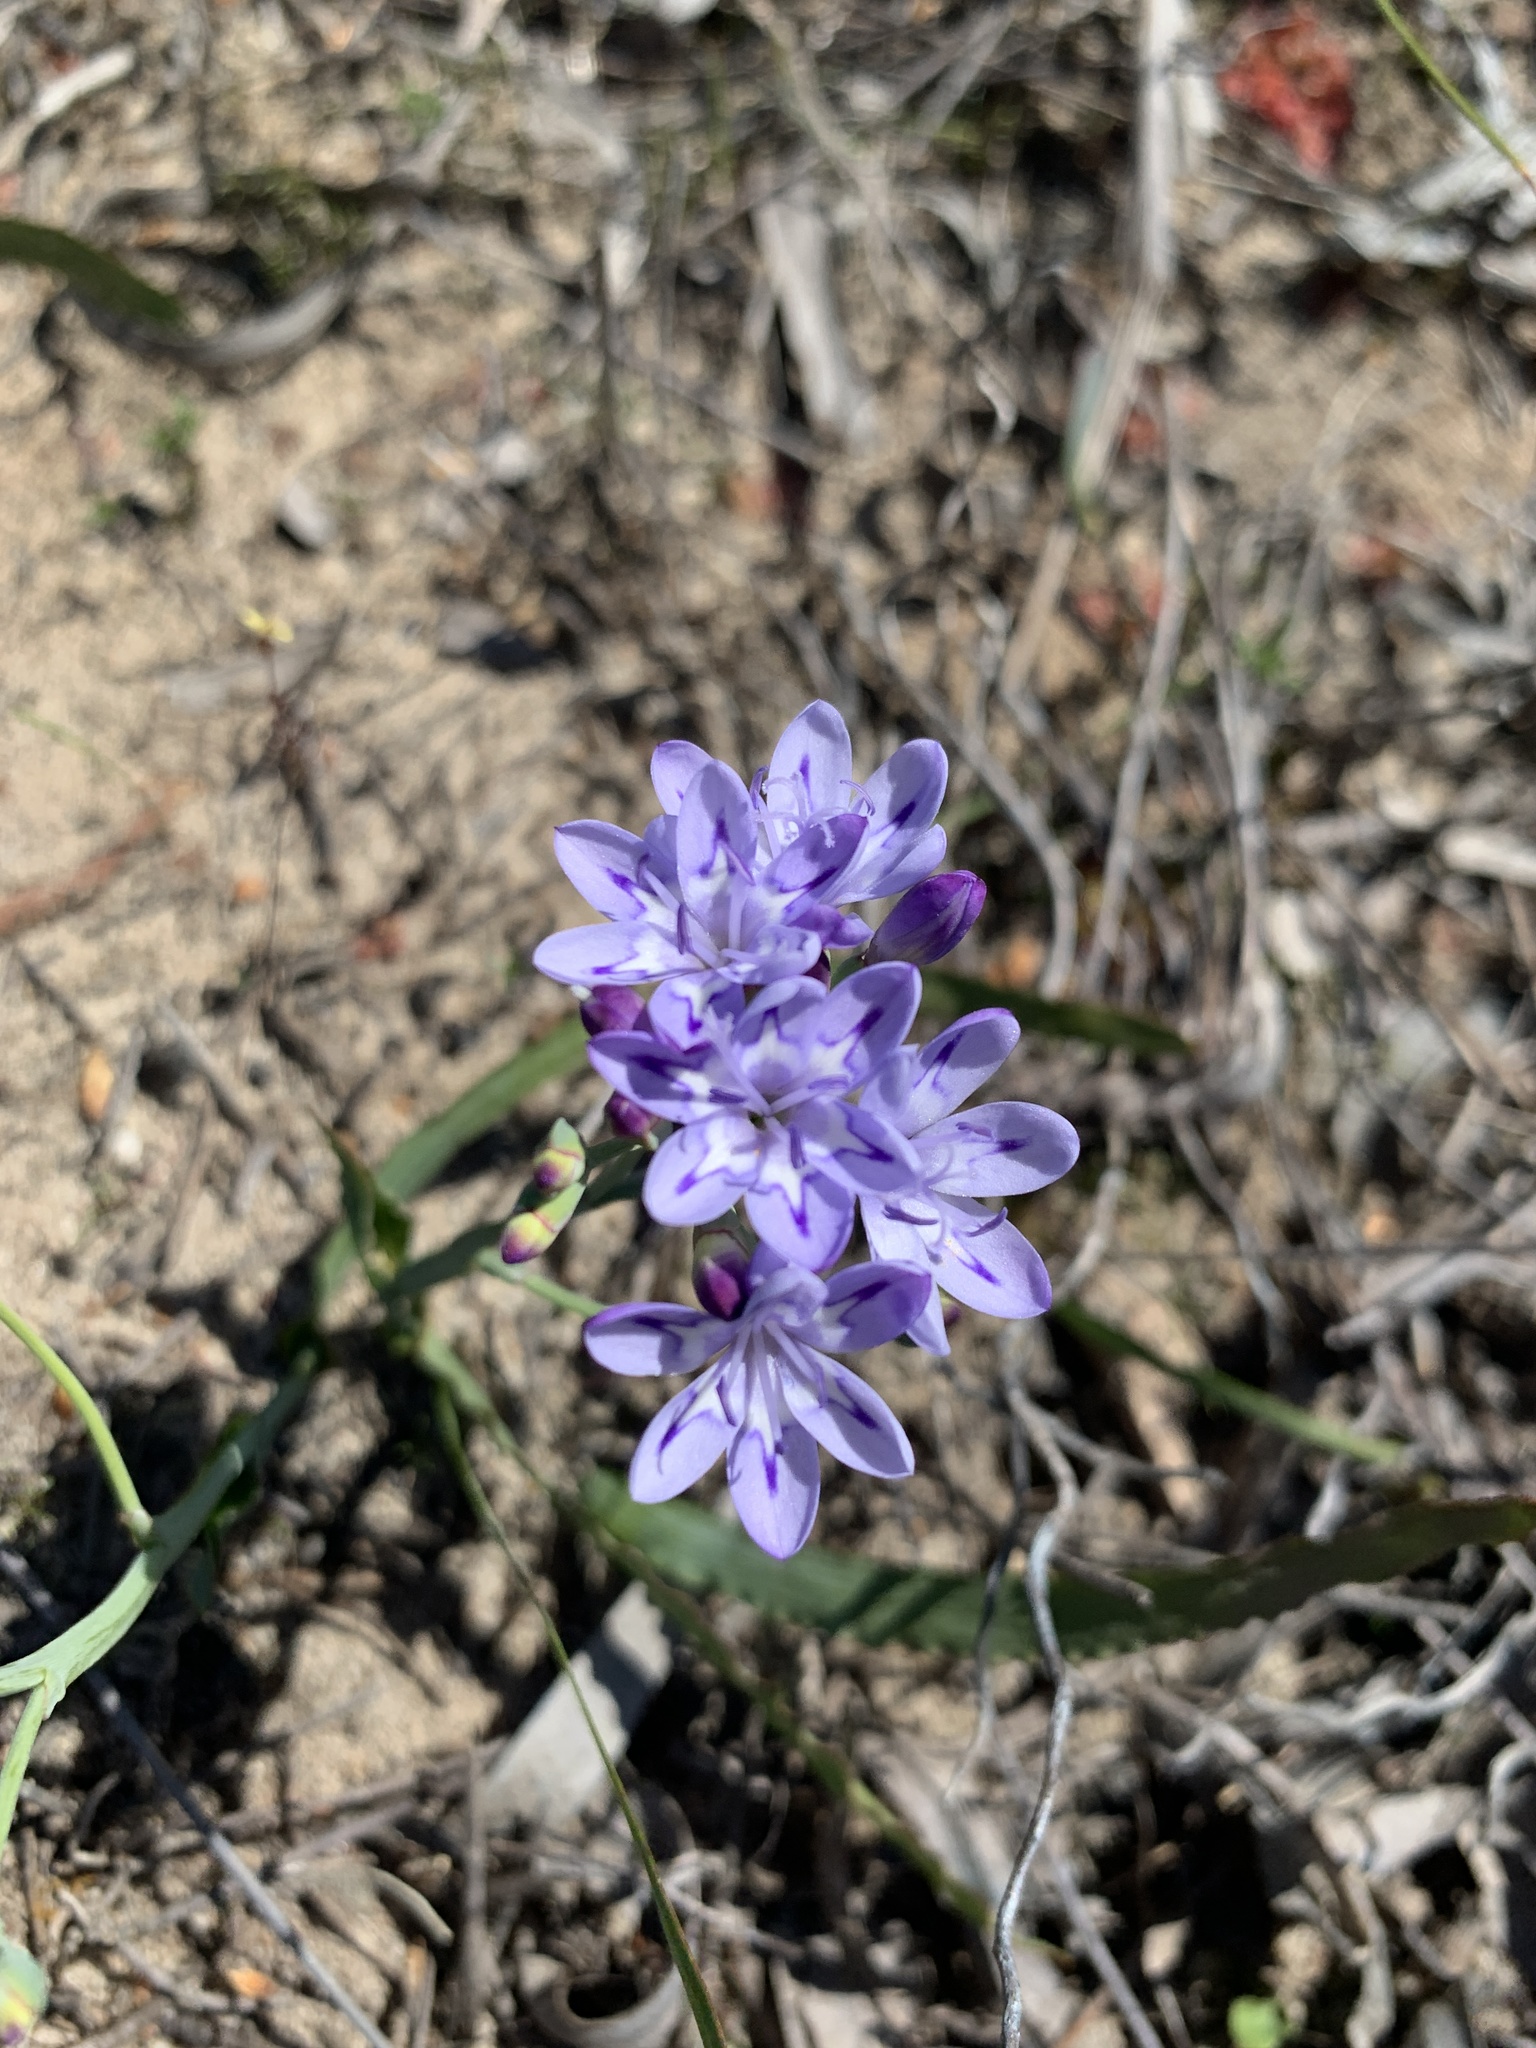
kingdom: Plantae
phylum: Tracheophyta
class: Liliopsida
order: Asparagales
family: Iridaceae
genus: Codonorhiza
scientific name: Codonorhiza corymbosa
